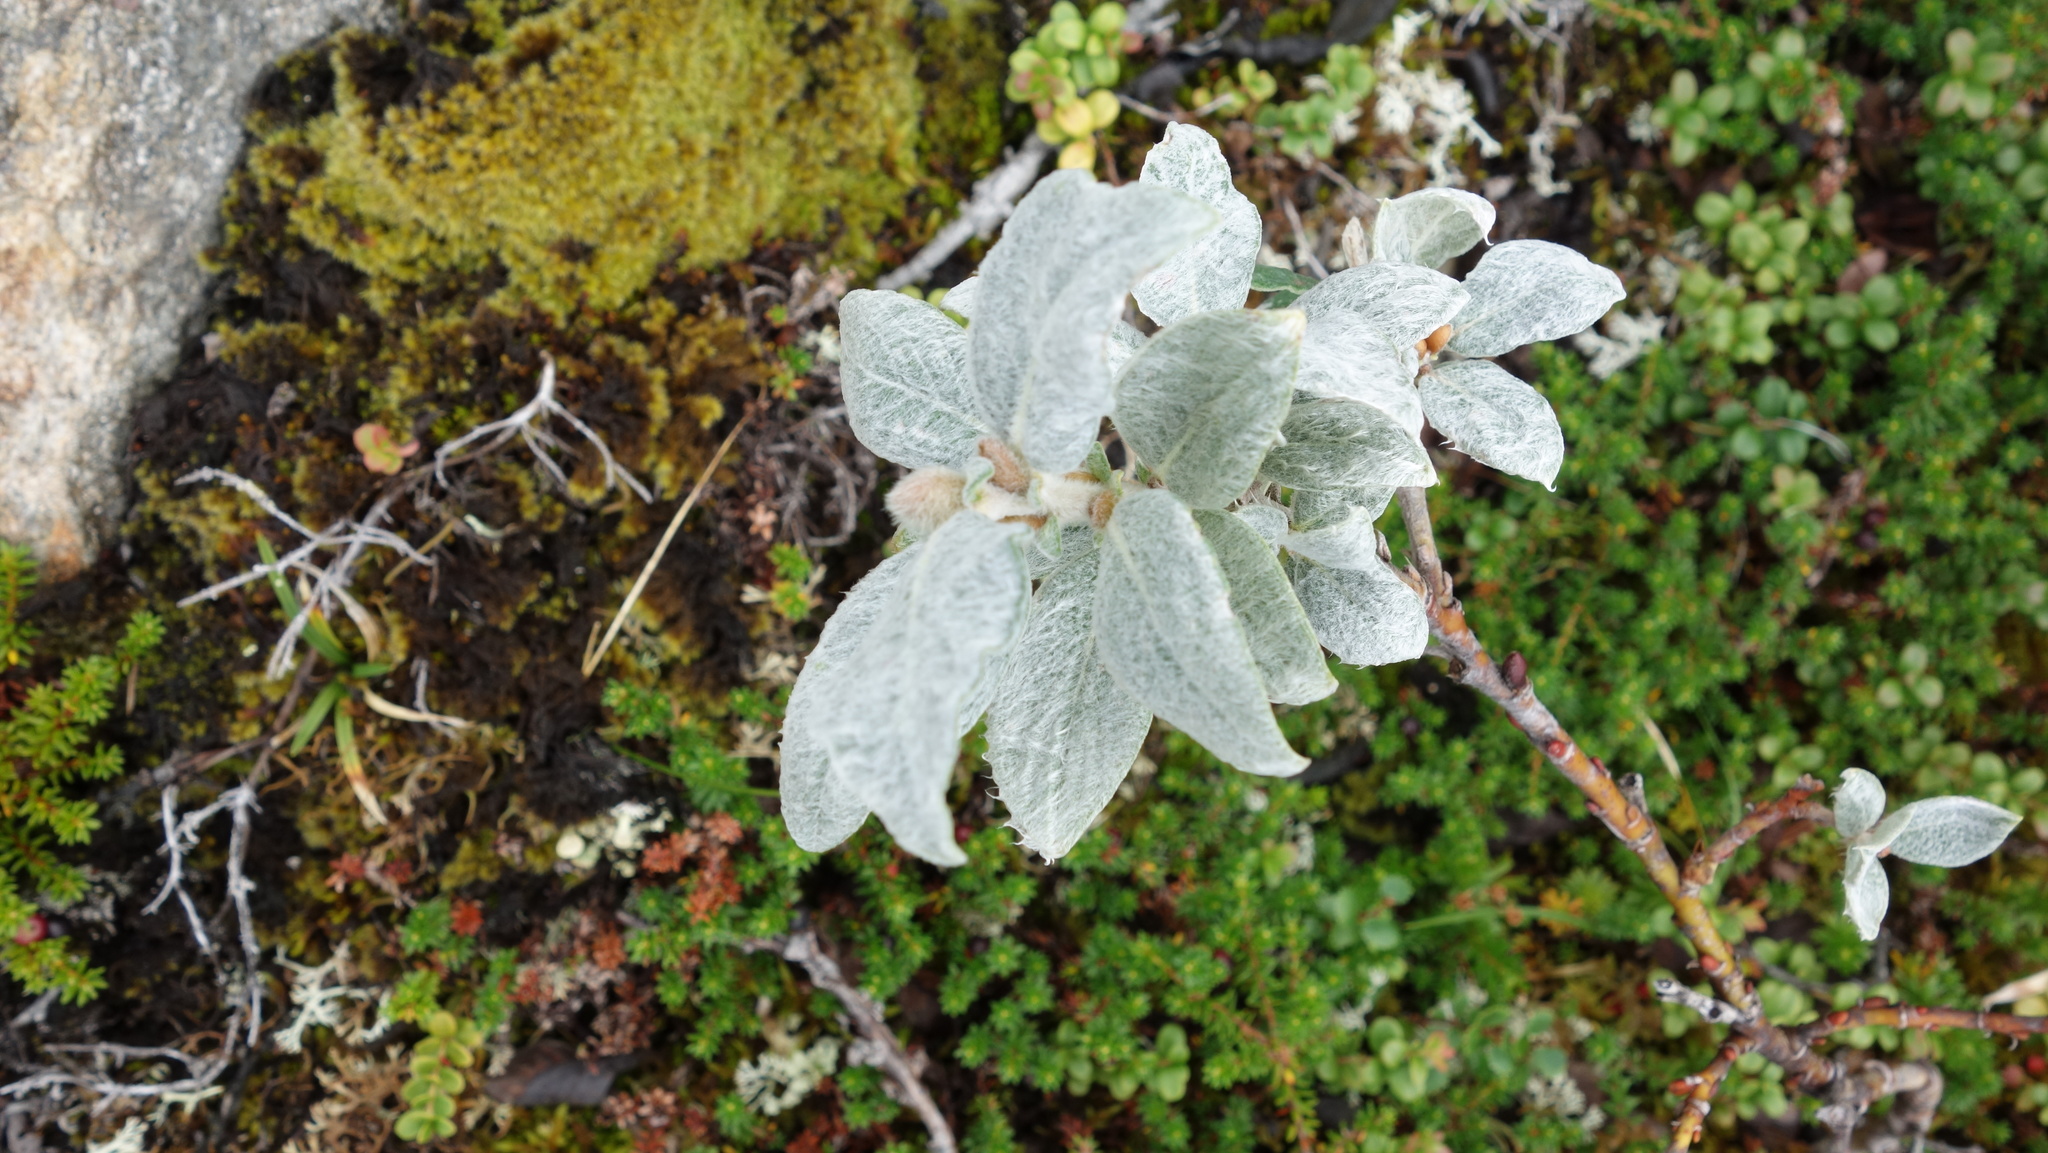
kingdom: Plantae
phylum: Tracheophyta
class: Magnoliopsida
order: Malpighiales
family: Salicaceae
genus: Salix
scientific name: Salix lanata
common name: Woolly willow
